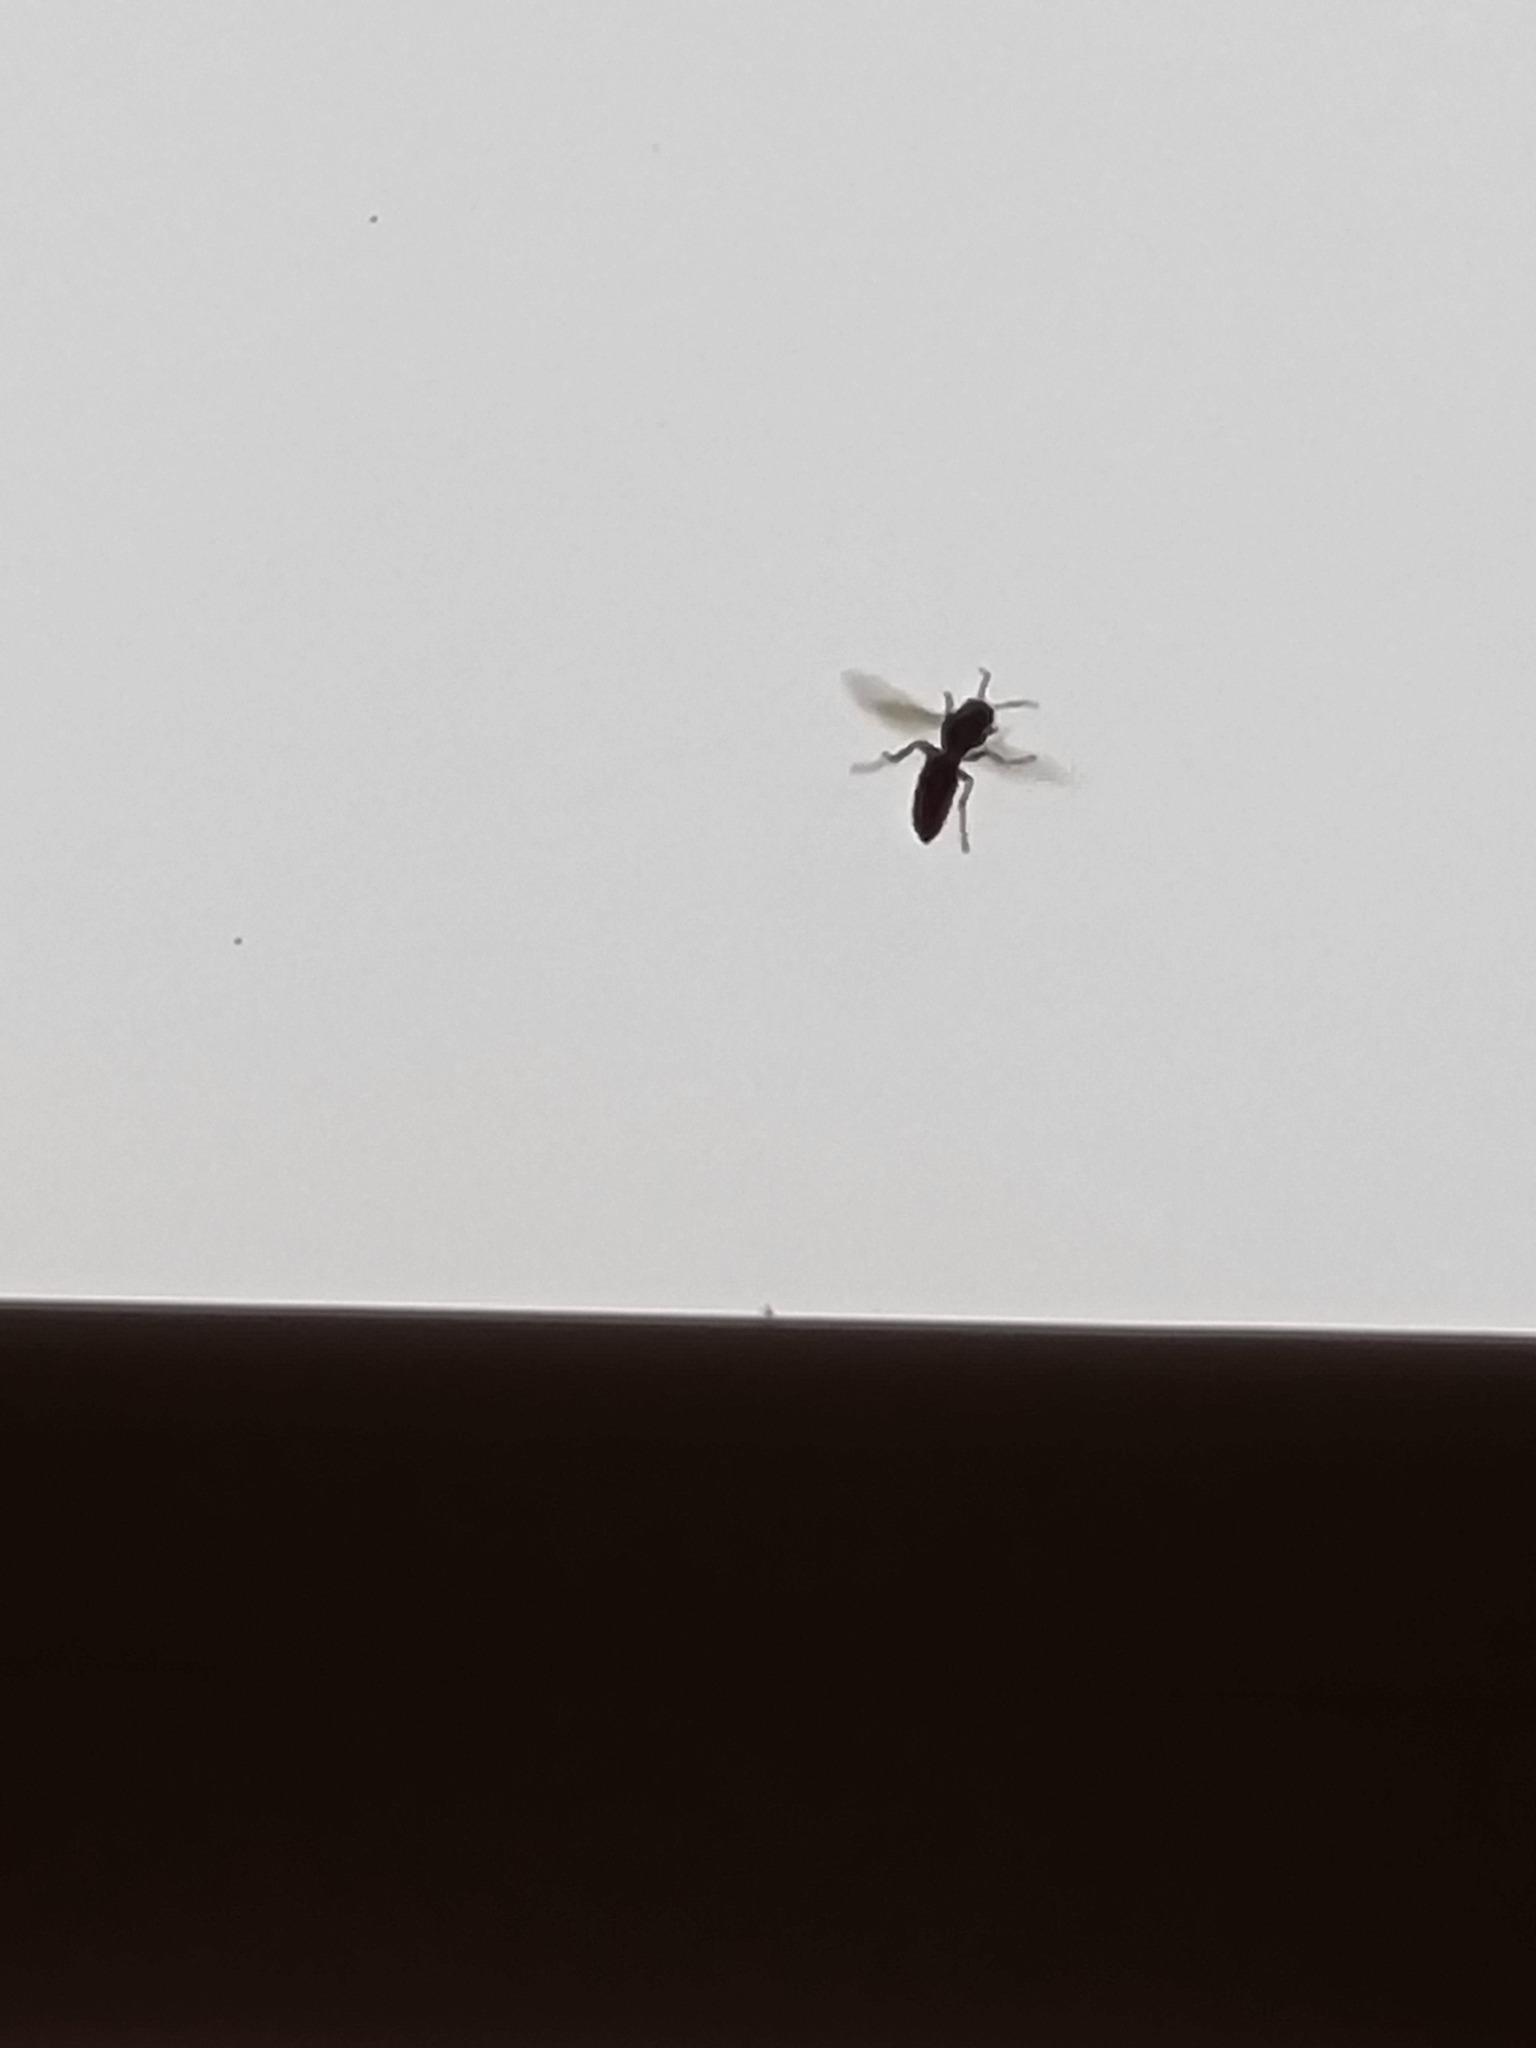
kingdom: Animalia
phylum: Arthropoda
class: Insecta
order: Hymenoptera
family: Vespidae
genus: Vespa
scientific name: Vespa velutina
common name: Asian hornet
